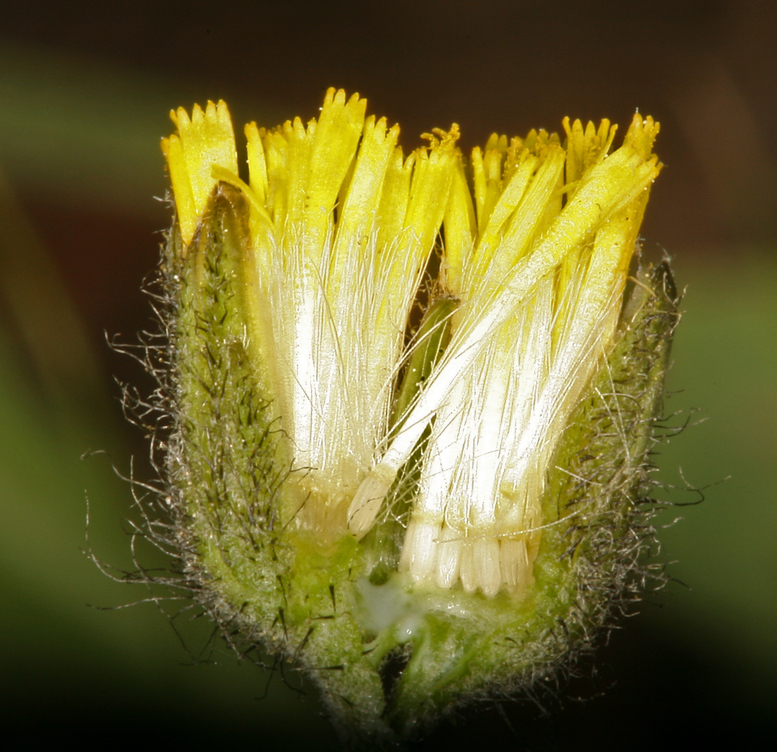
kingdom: Plantae
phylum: Tracheophyta
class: Magnoliopsida
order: Asterales
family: Asteraceae
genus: Hieracium
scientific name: Hieracium triste
